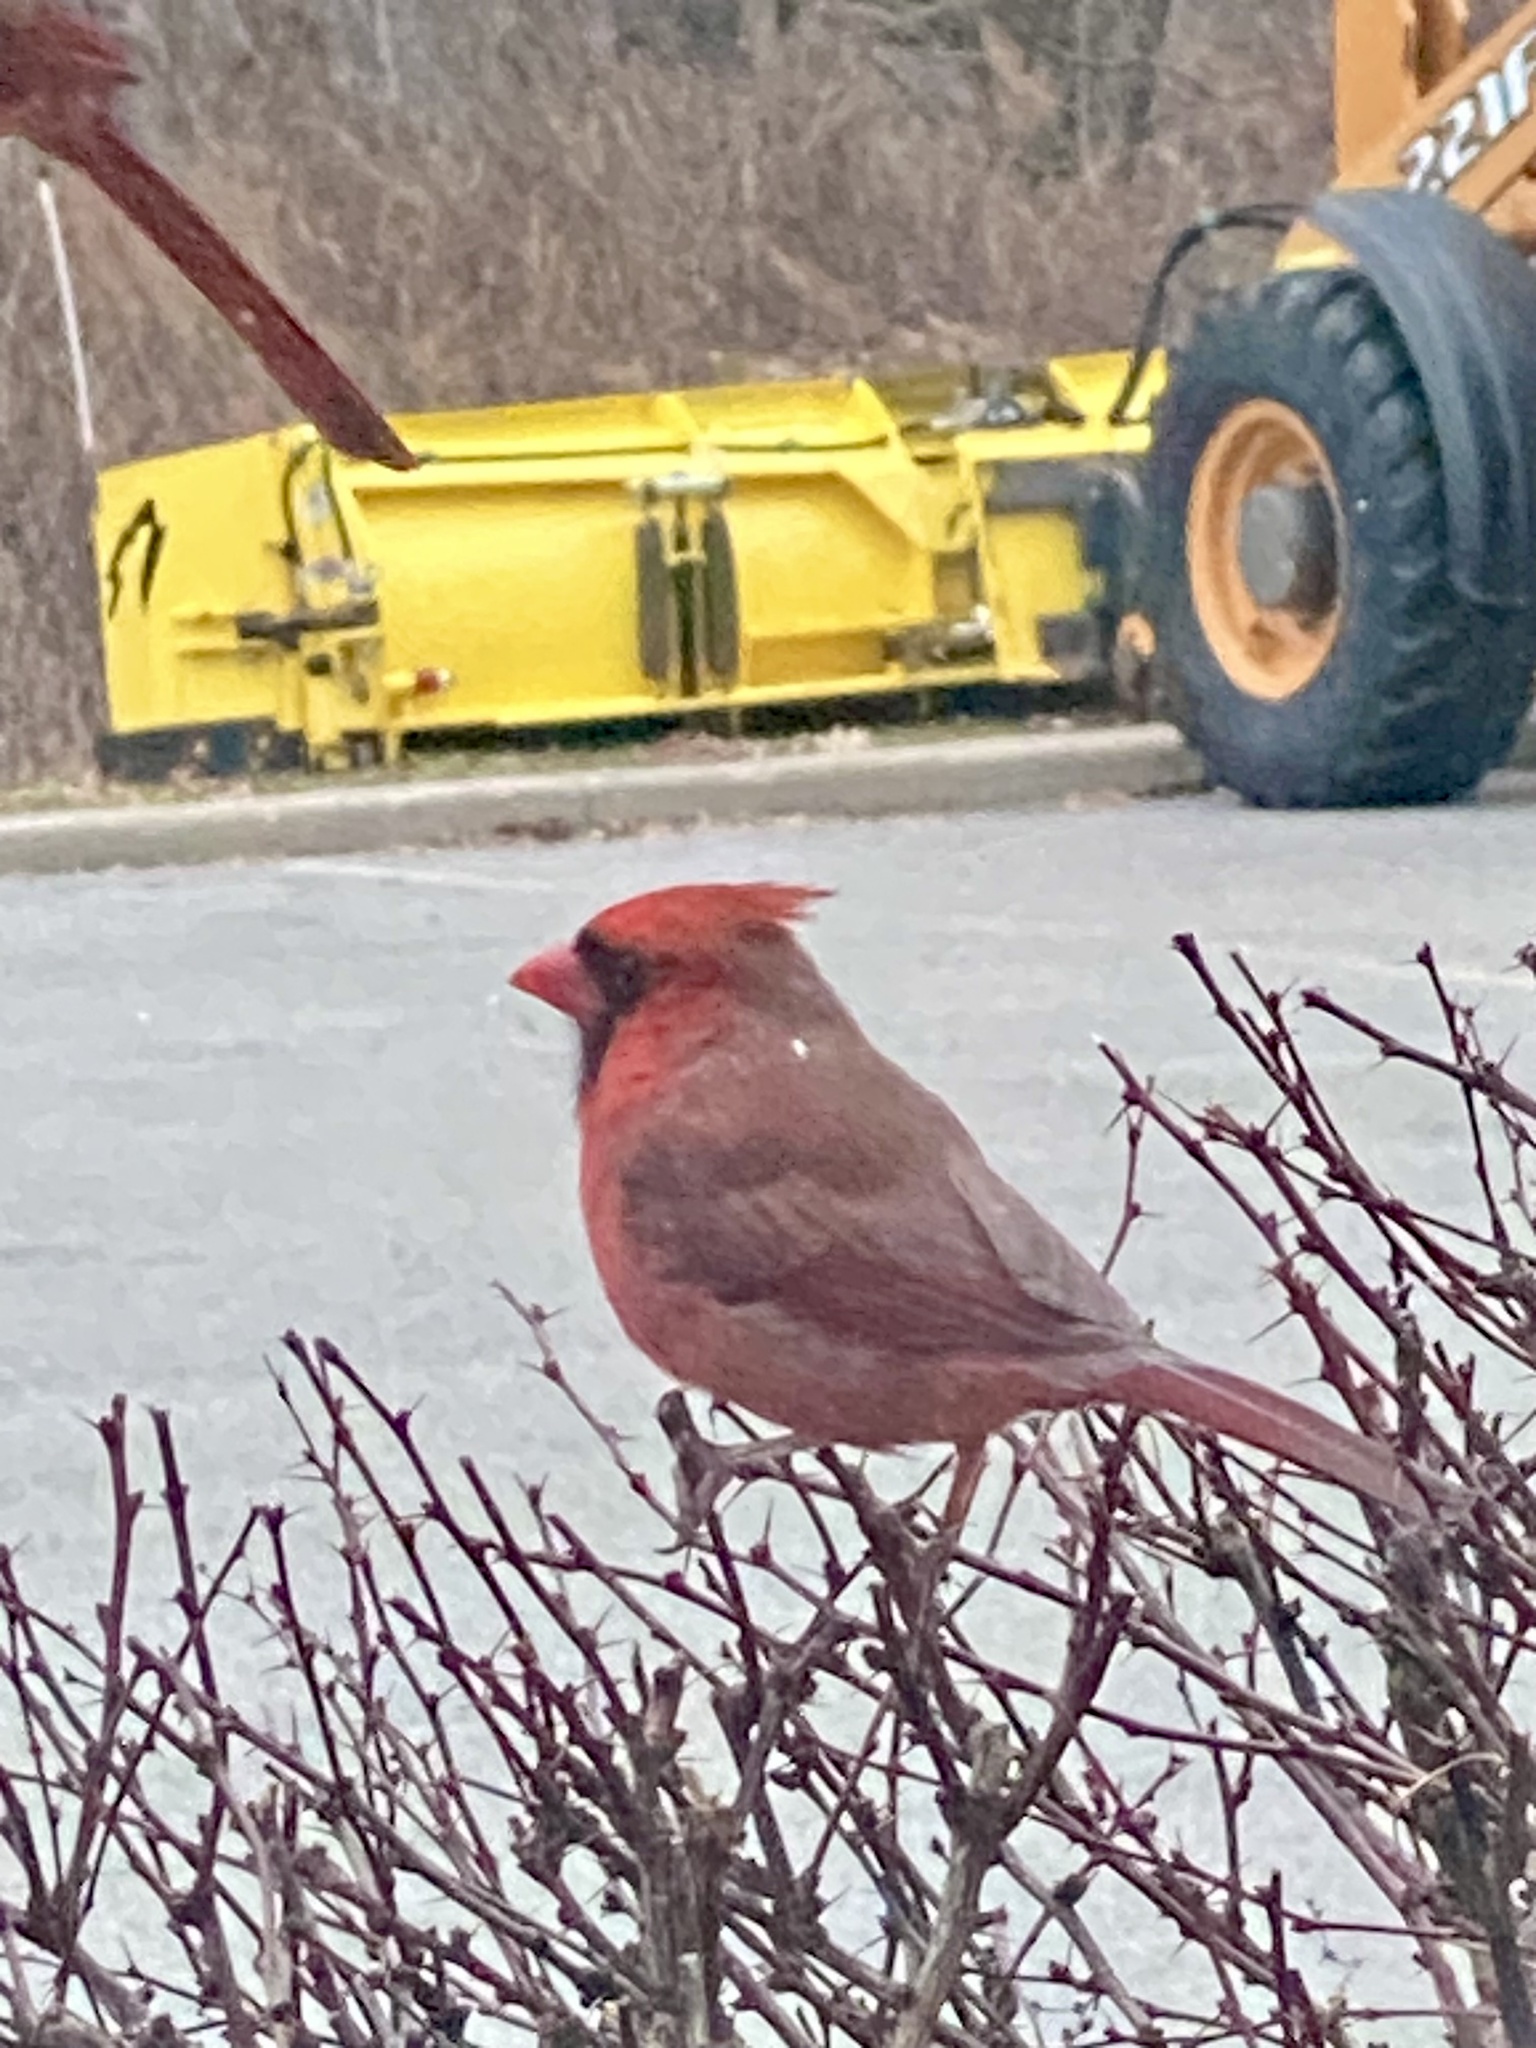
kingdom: Animalia
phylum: Chordata
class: Aves
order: Passeriformes
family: Cardinalidae
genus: Cardinalis
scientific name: Cardinalis cardinalis
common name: Northern cardinal
